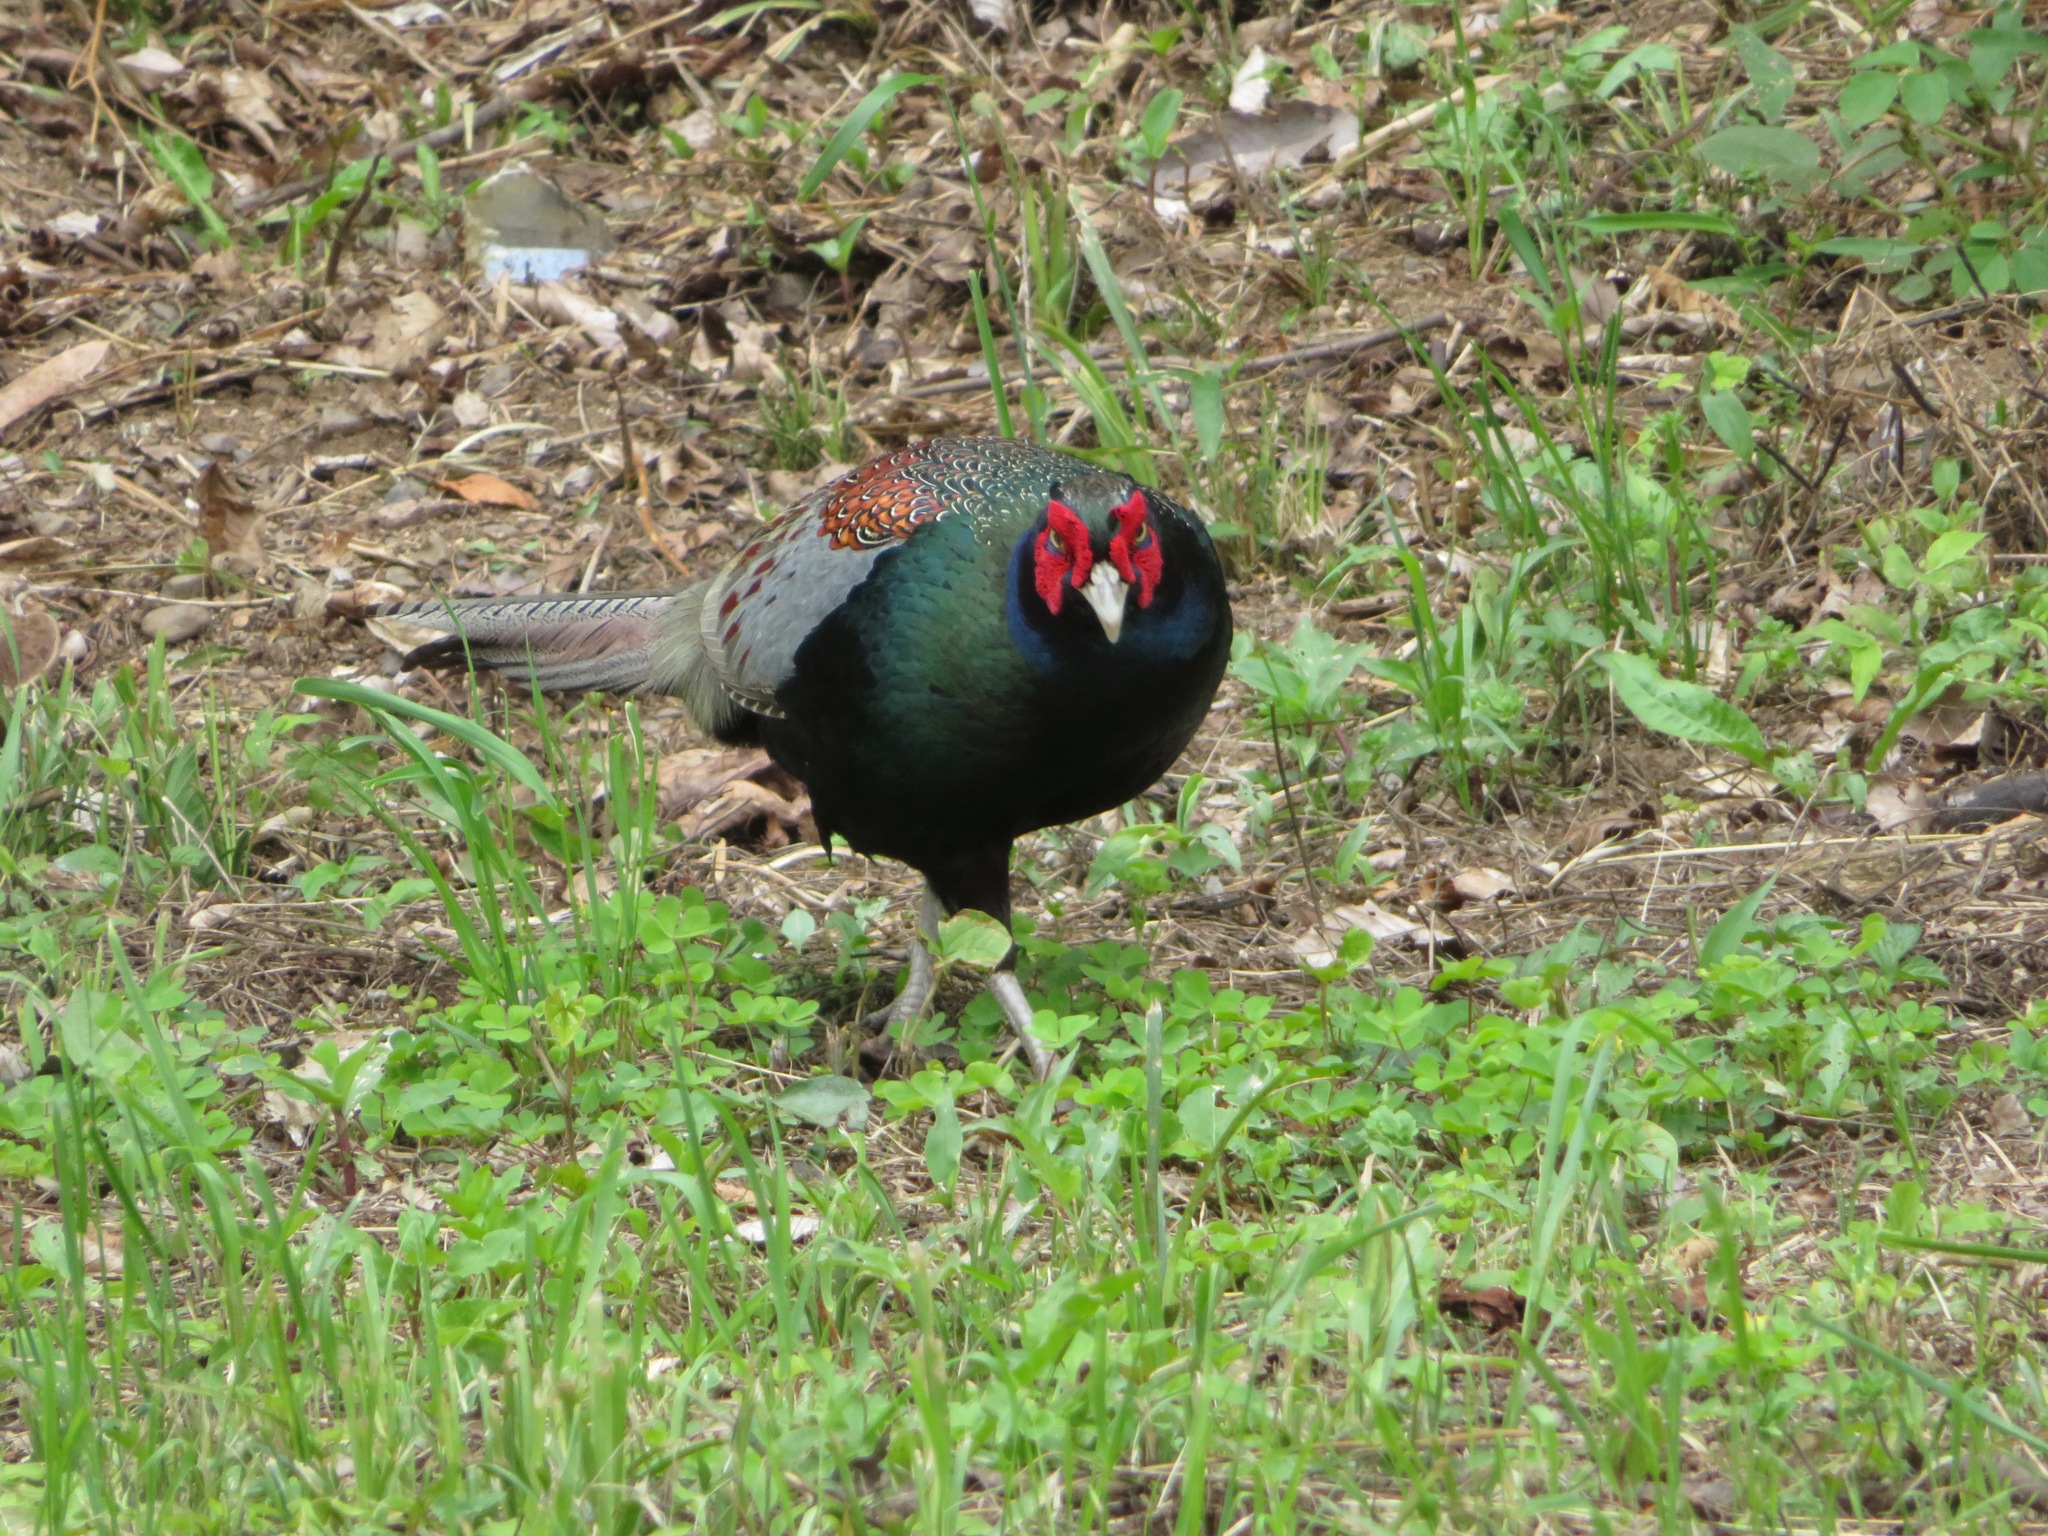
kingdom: Animalia
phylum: Chordata
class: Aves
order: Galliformes
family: Phasianidae
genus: Phasianus
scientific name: Phasianus versicolor
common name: Green pheasant
